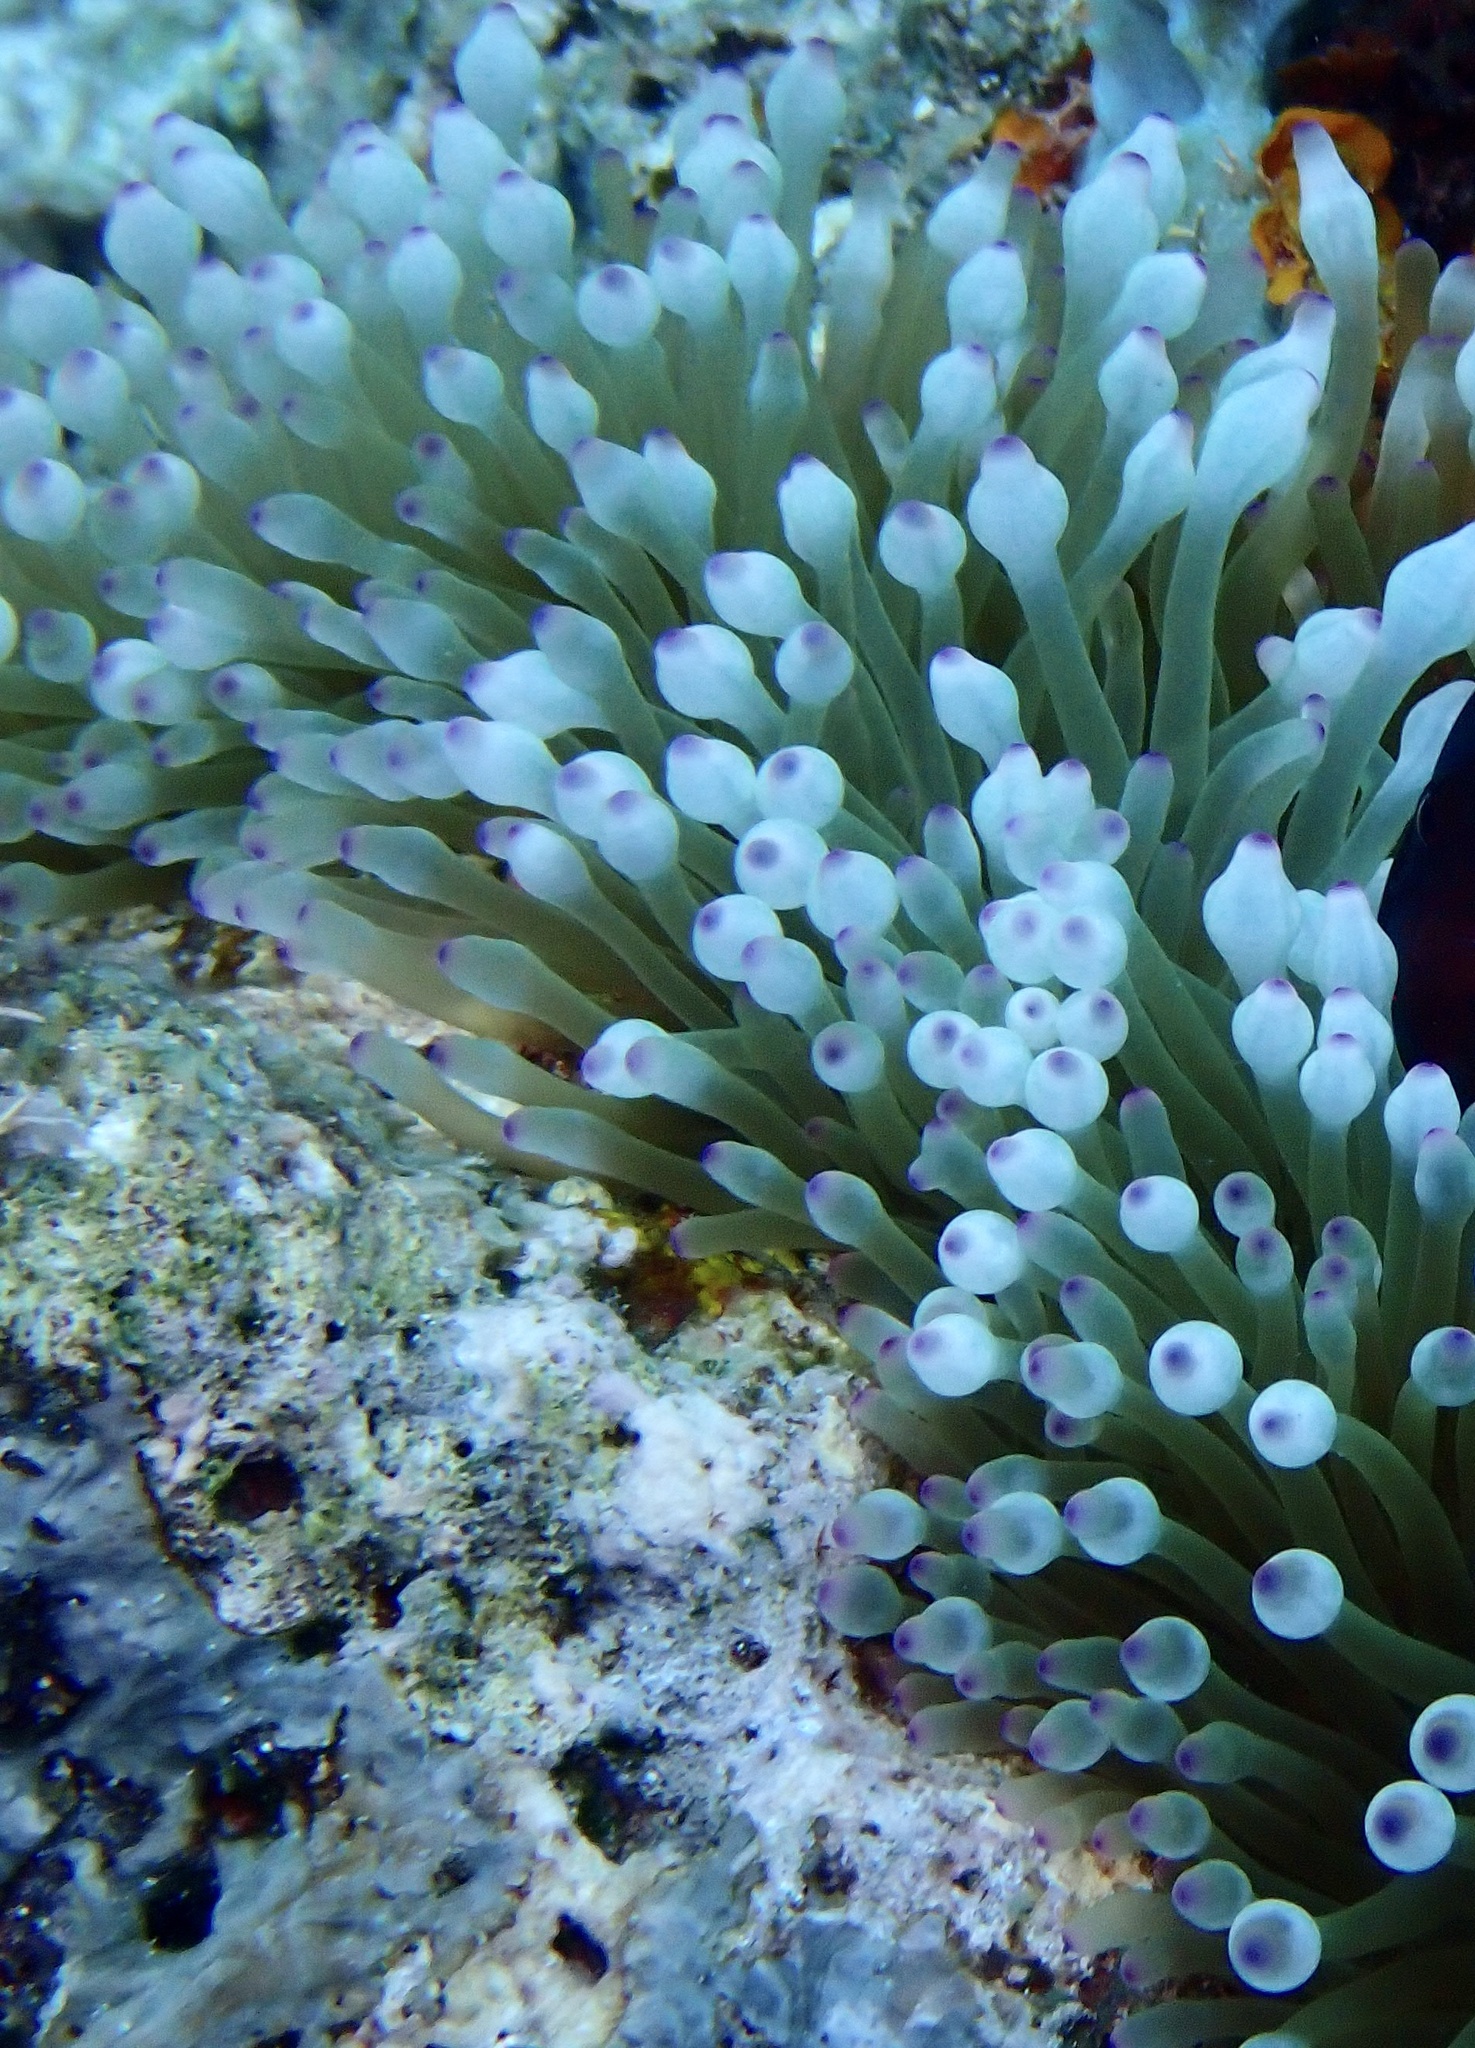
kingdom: Animalia
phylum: Cnidaria
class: Anthozoa
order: Actiniaria
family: Actiniidae
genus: Entacmaea
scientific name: Entacmaea quadricolor
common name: Bulb tentacle sea anemone
